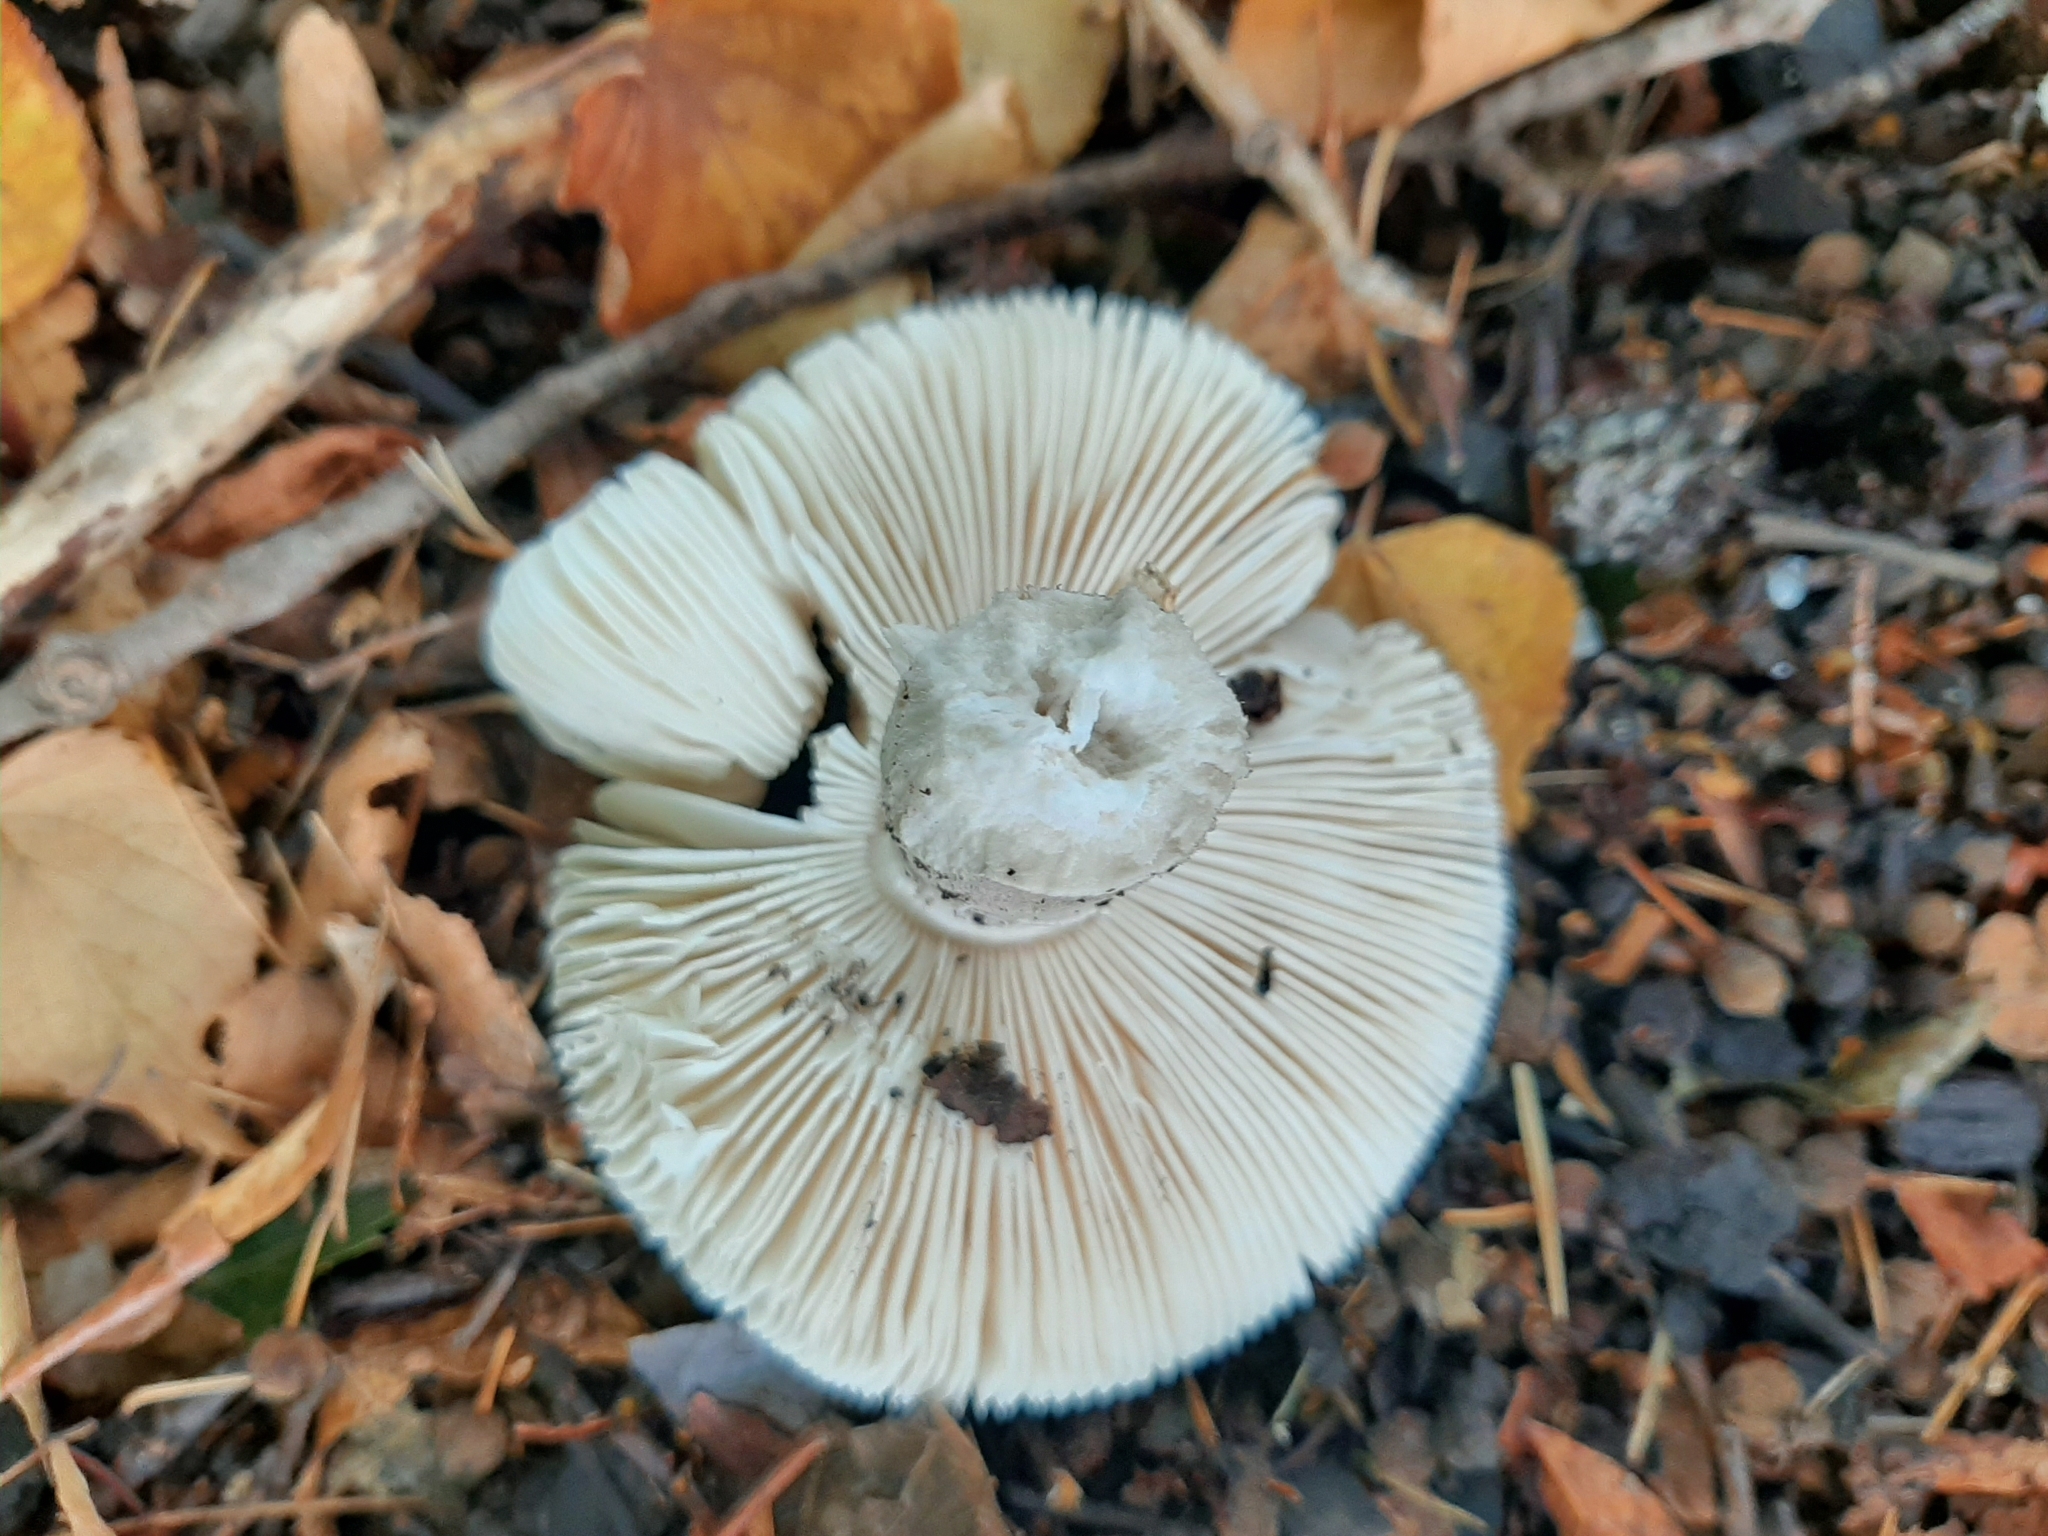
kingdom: Fungi
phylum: Basidiomycota
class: Agaricomycetes
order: Agaricales
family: Amanitaceae
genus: Amanita
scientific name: Amanita excelsa
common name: European false blusher
